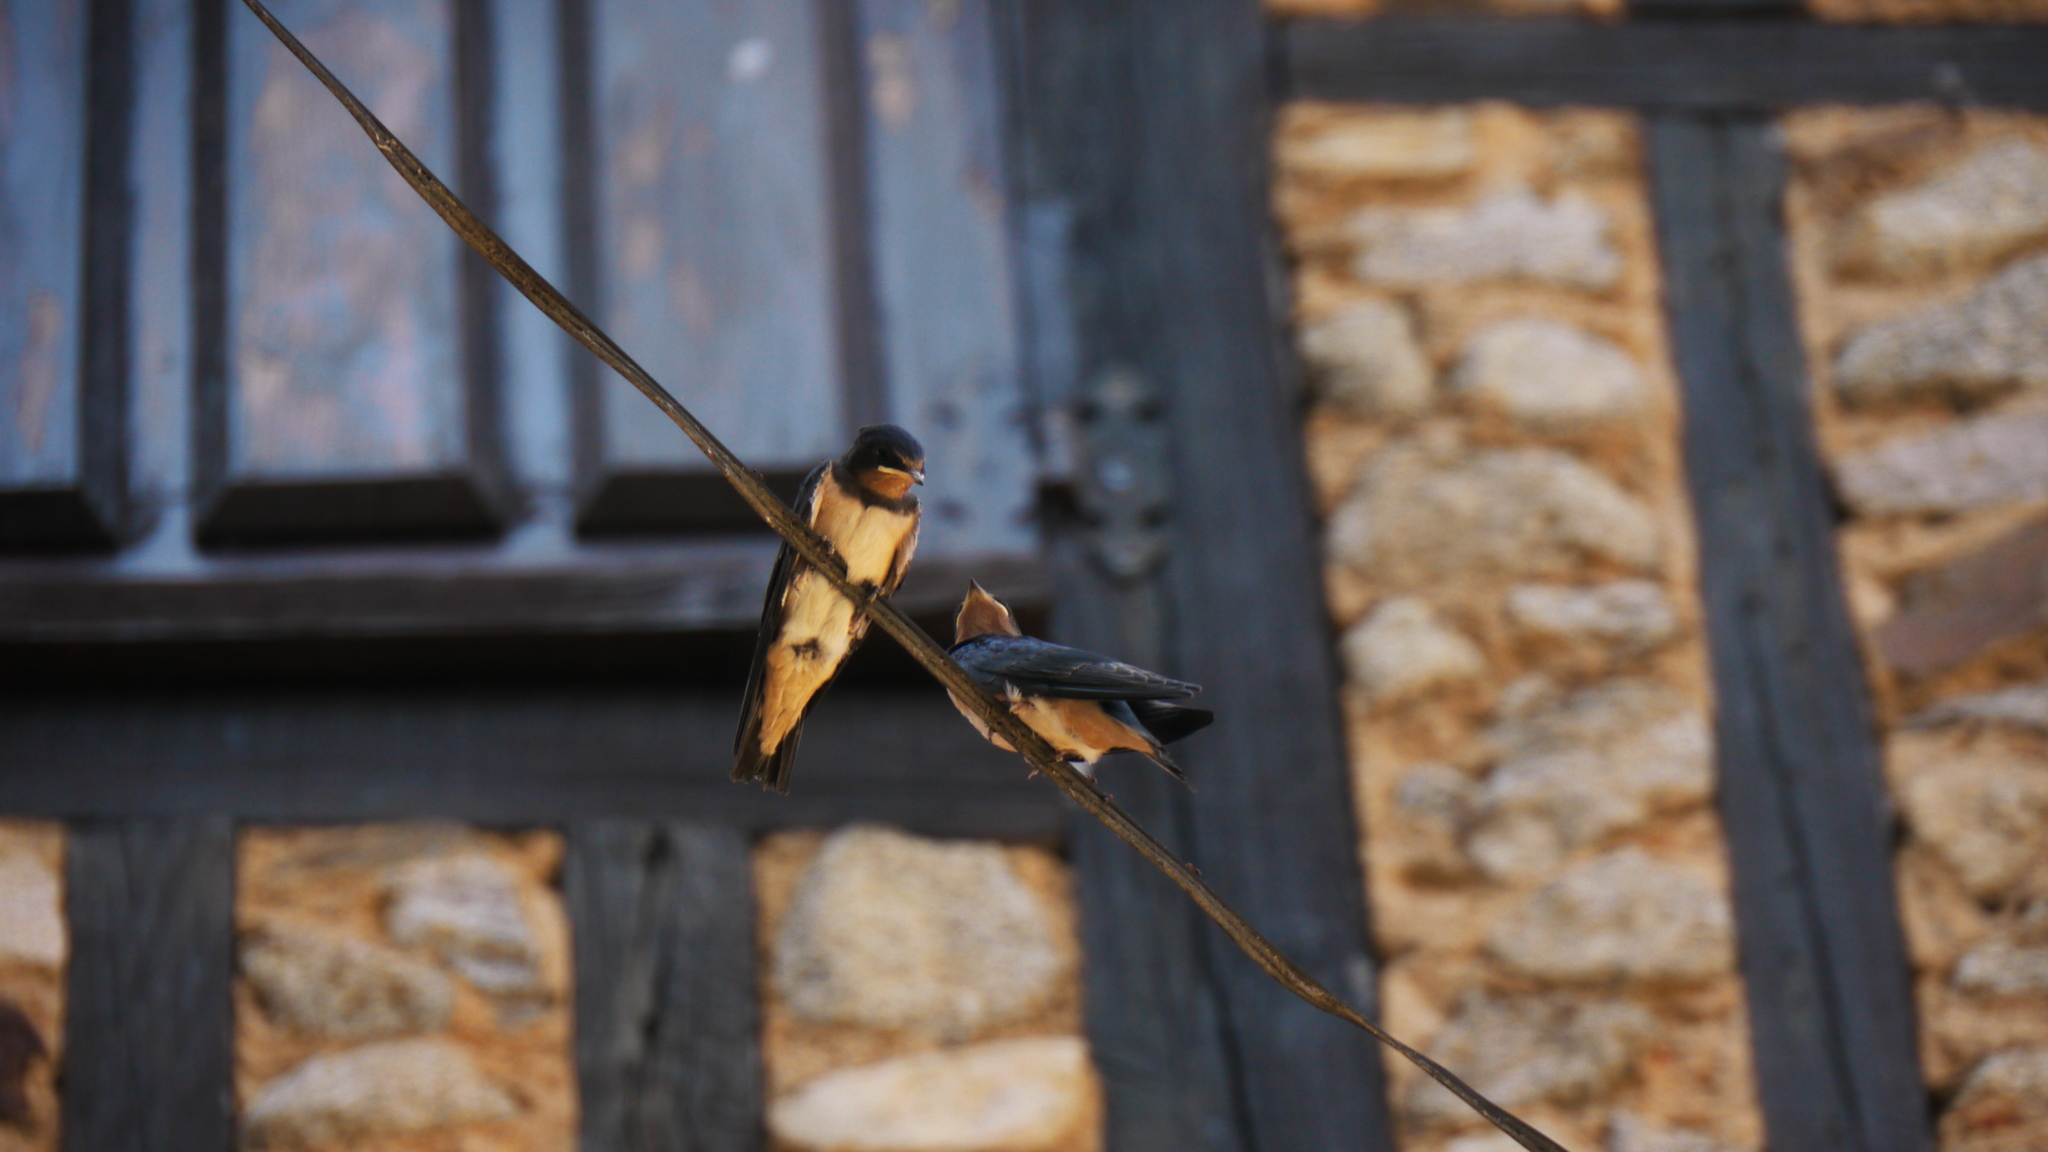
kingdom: Animalia
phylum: Chordata
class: Aves
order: Passeriformes
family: Hirundinidae
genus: Hirundo
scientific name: Hirundo rustica
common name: Barn swallow
